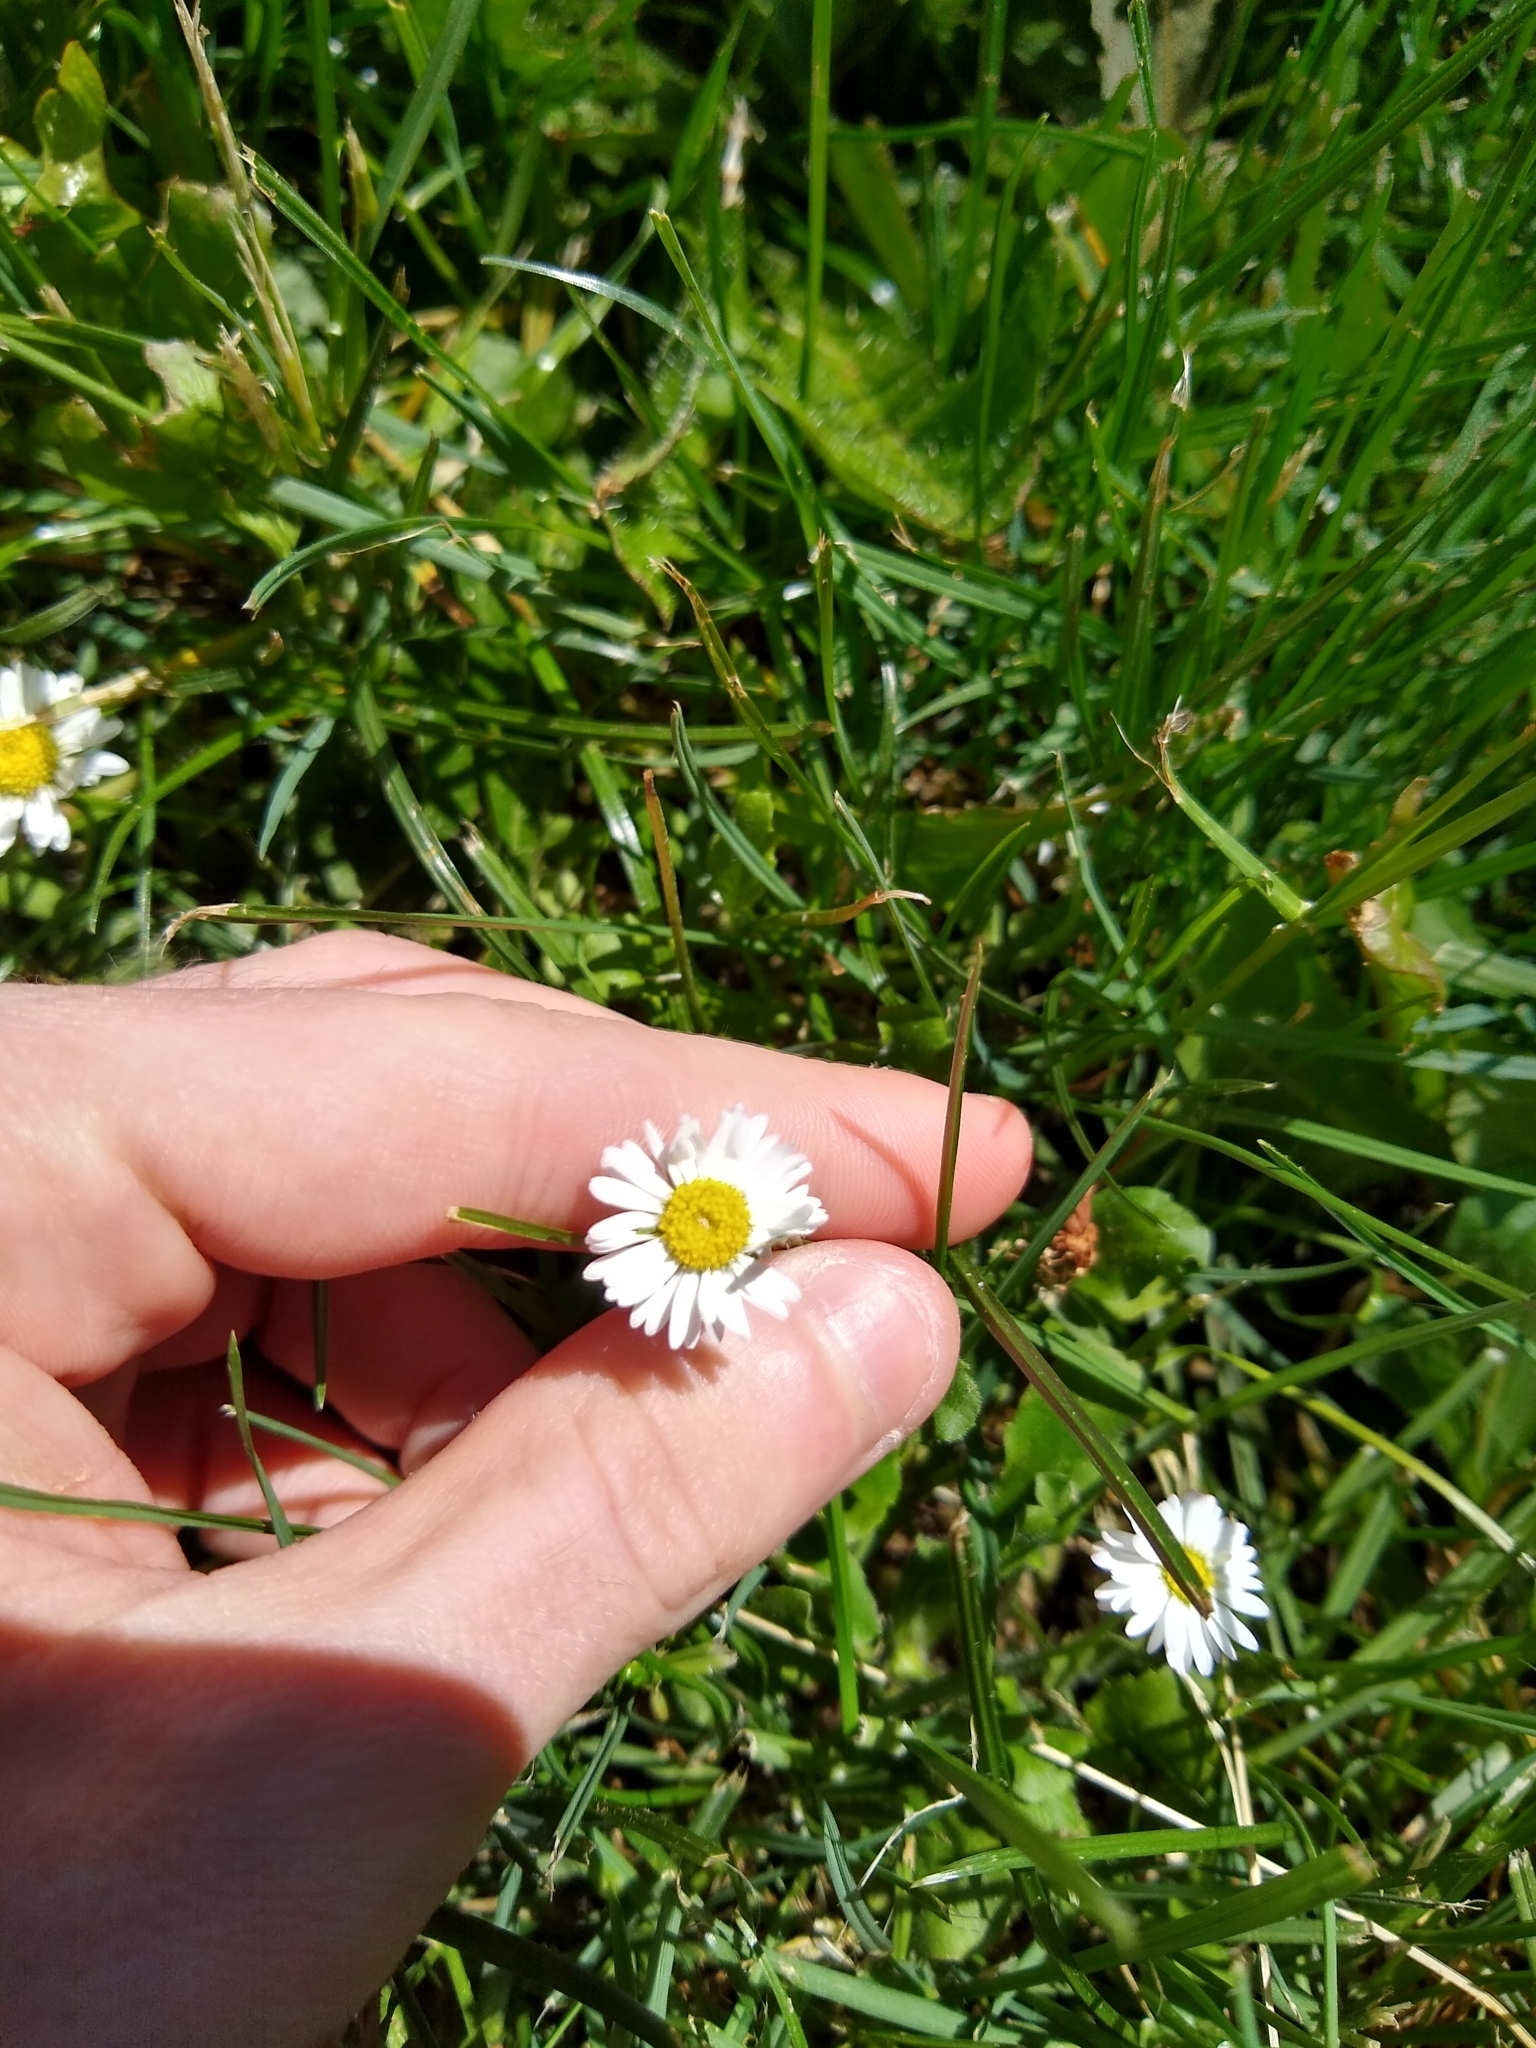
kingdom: Plantae
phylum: Tracheophyta
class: Magnoliopsida
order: Asterales
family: Asteraceae
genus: Bellis
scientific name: Bellis perennis
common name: Lawndaisy
